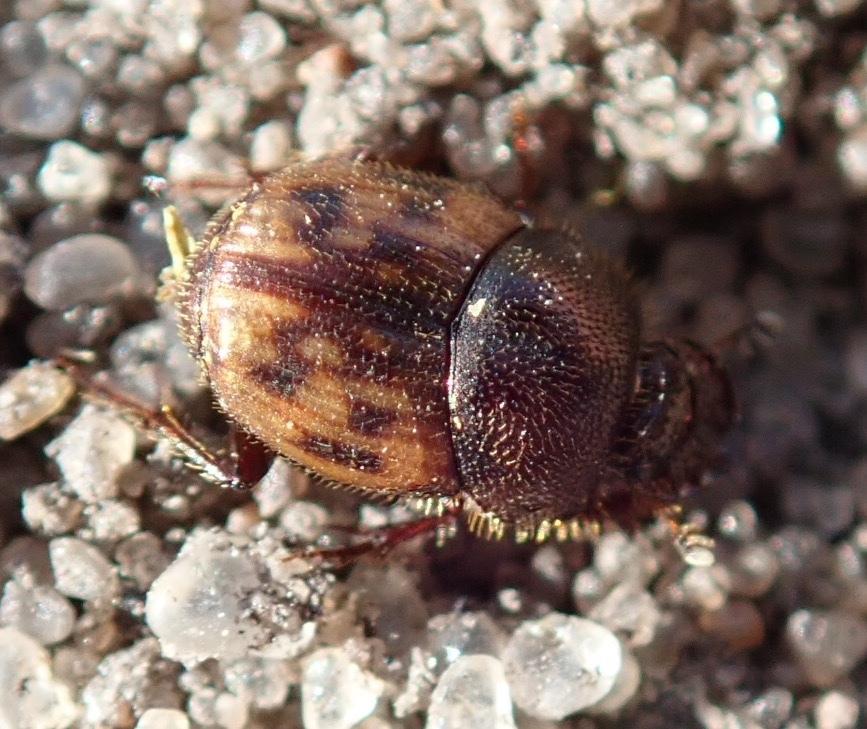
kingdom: Animalia
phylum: Arthropoda
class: Insecta
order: Coleoptera
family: Scarabaeidae
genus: Onthophagus
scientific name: Onthophagus variegatus
